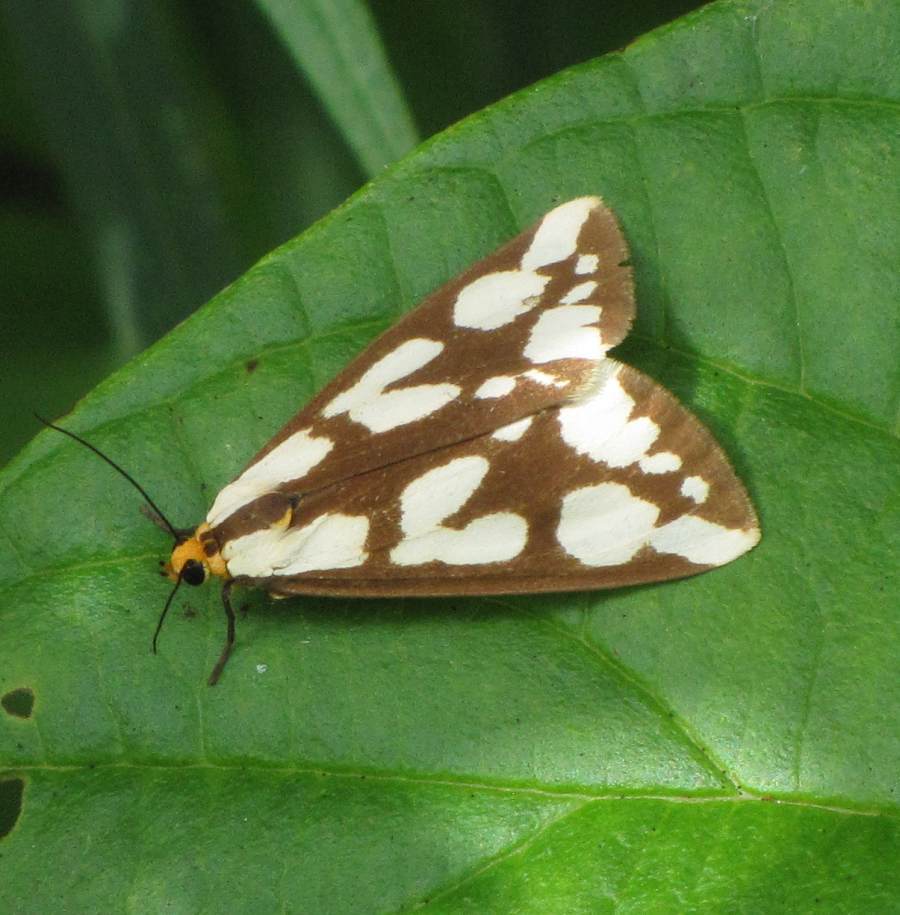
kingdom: Animalia
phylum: Arthropoda
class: Insecta
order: Lepidoptera
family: Erebidae
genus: Haploa
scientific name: Haploa confusa
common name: Confused haploa moth
